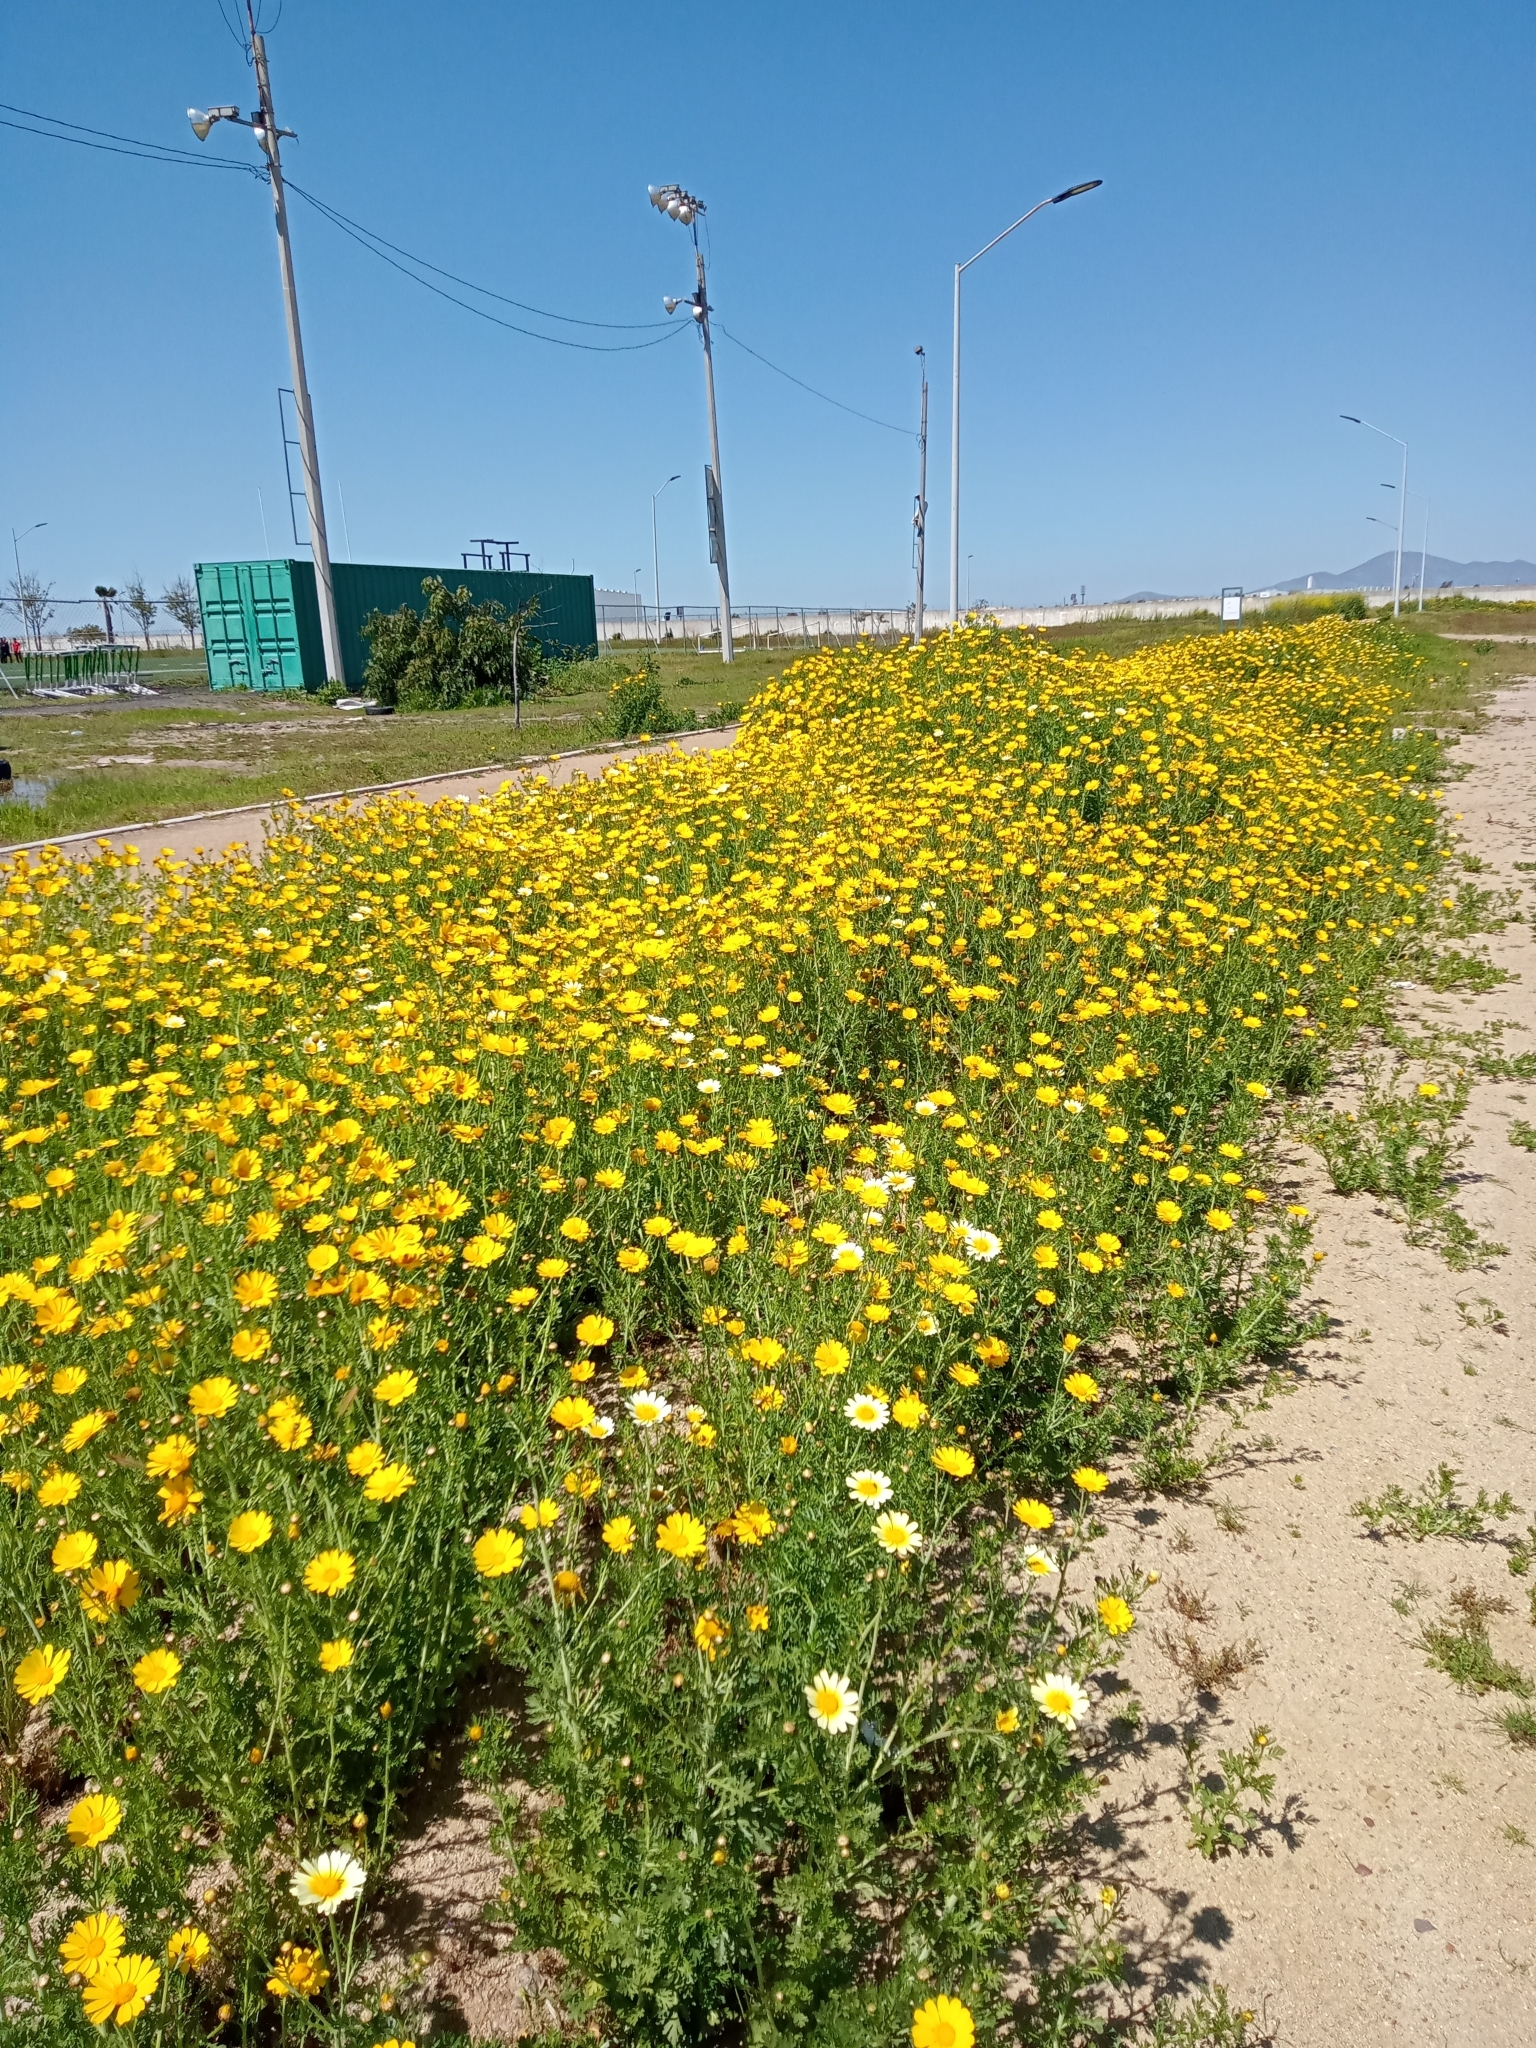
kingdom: Plantae
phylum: Tracheophyta
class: Magnoliopsida
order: Asterales
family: Asteraceae
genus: Glebionis
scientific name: Glebionis coronaria
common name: Crowndaisy
